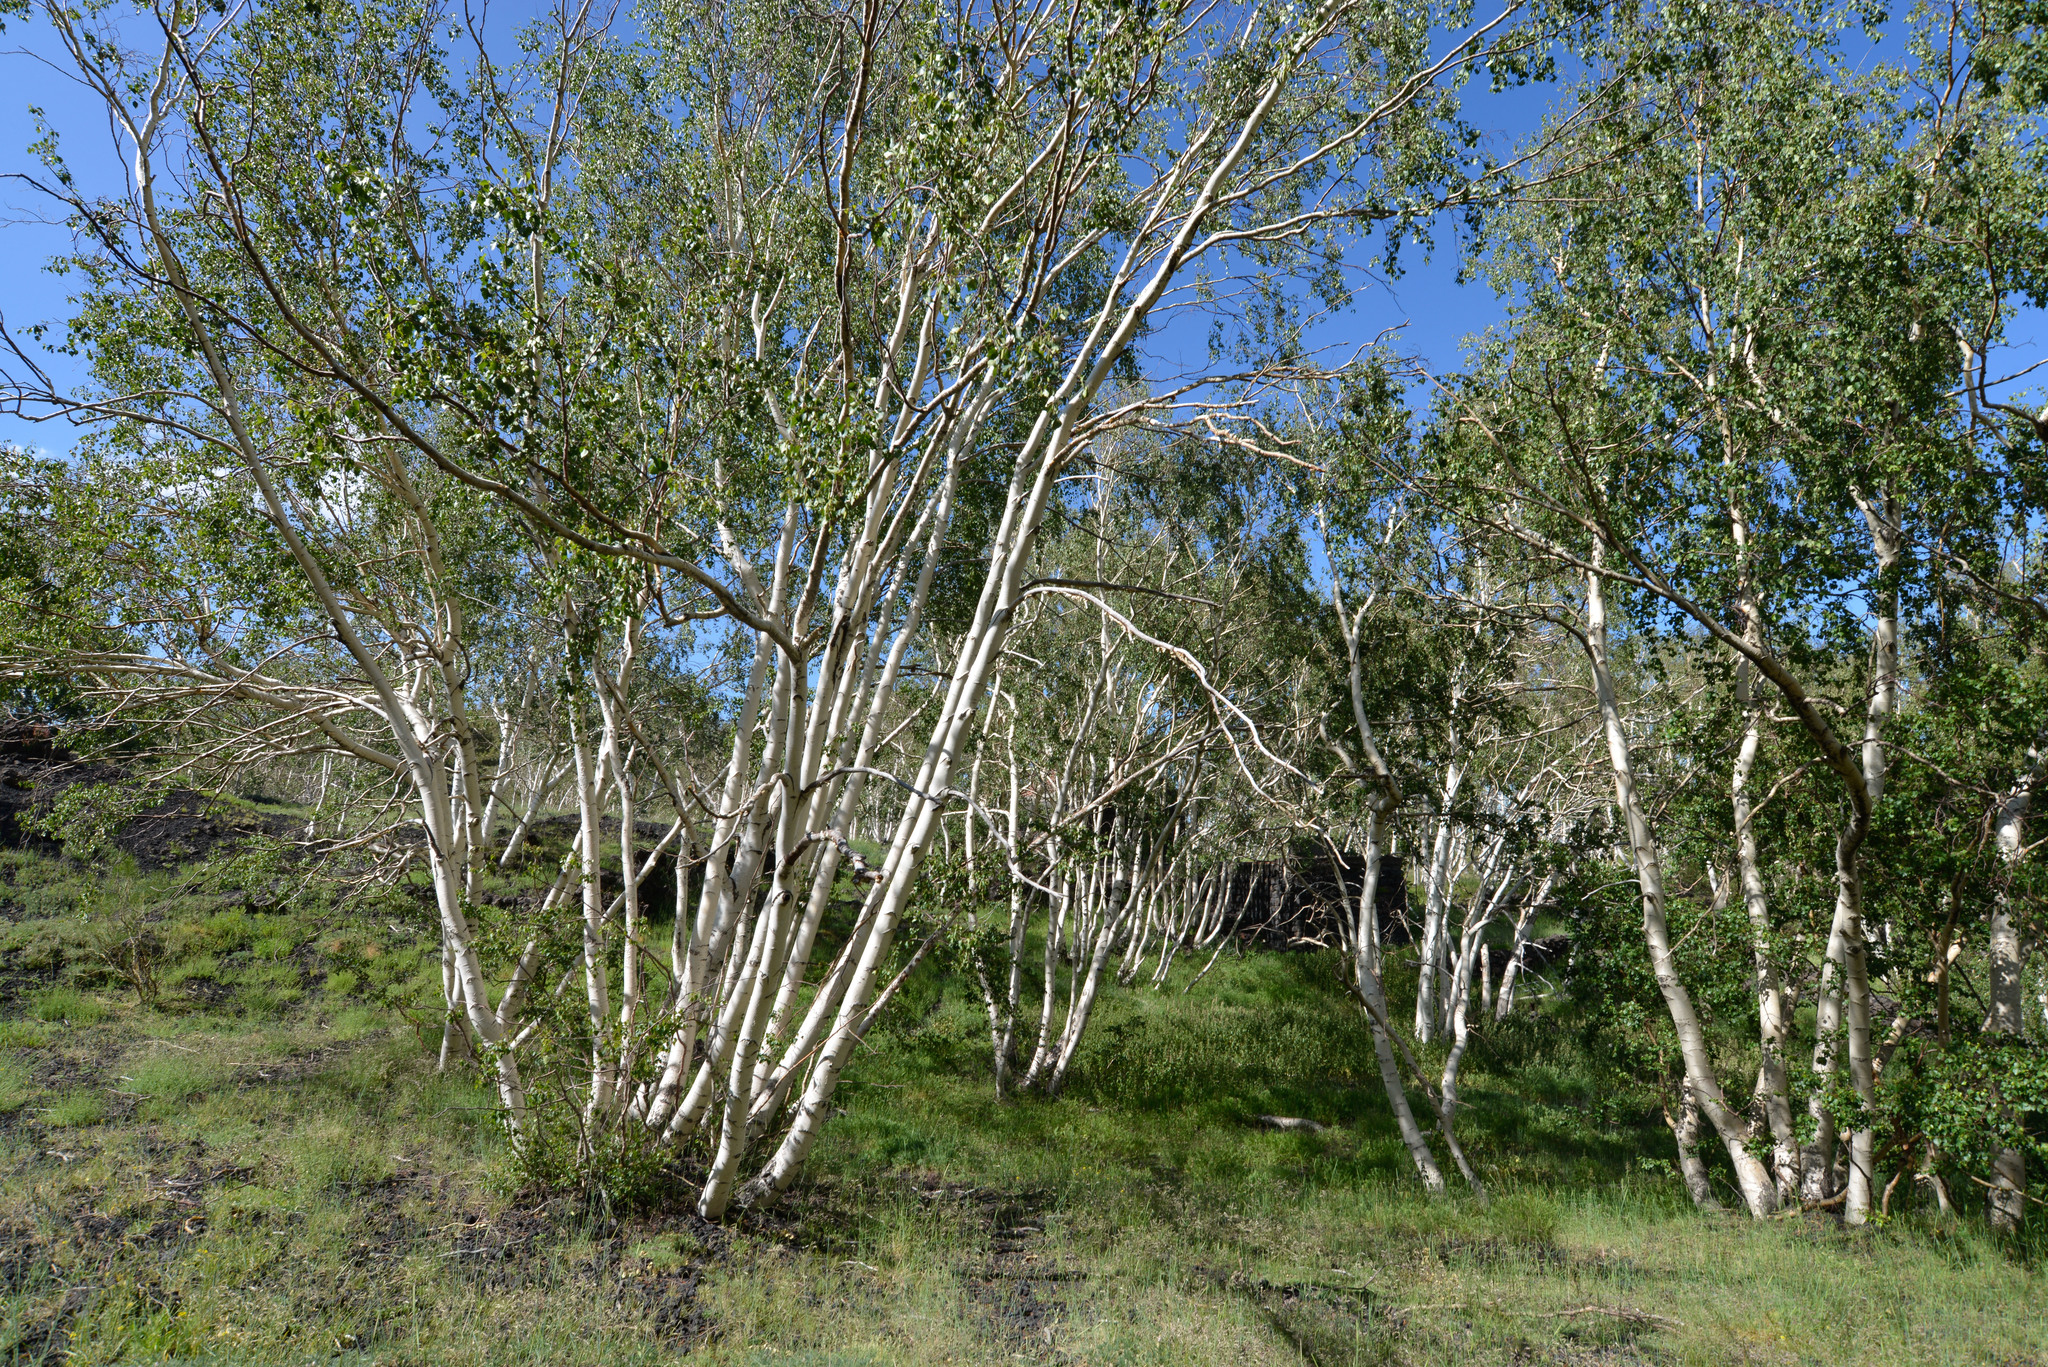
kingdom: Plantae
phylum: Tracheophyta
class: Magnoliopsida
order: Fagales
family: Betulaceae
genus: Betula
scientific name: Betula pendula
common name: Silver birch
